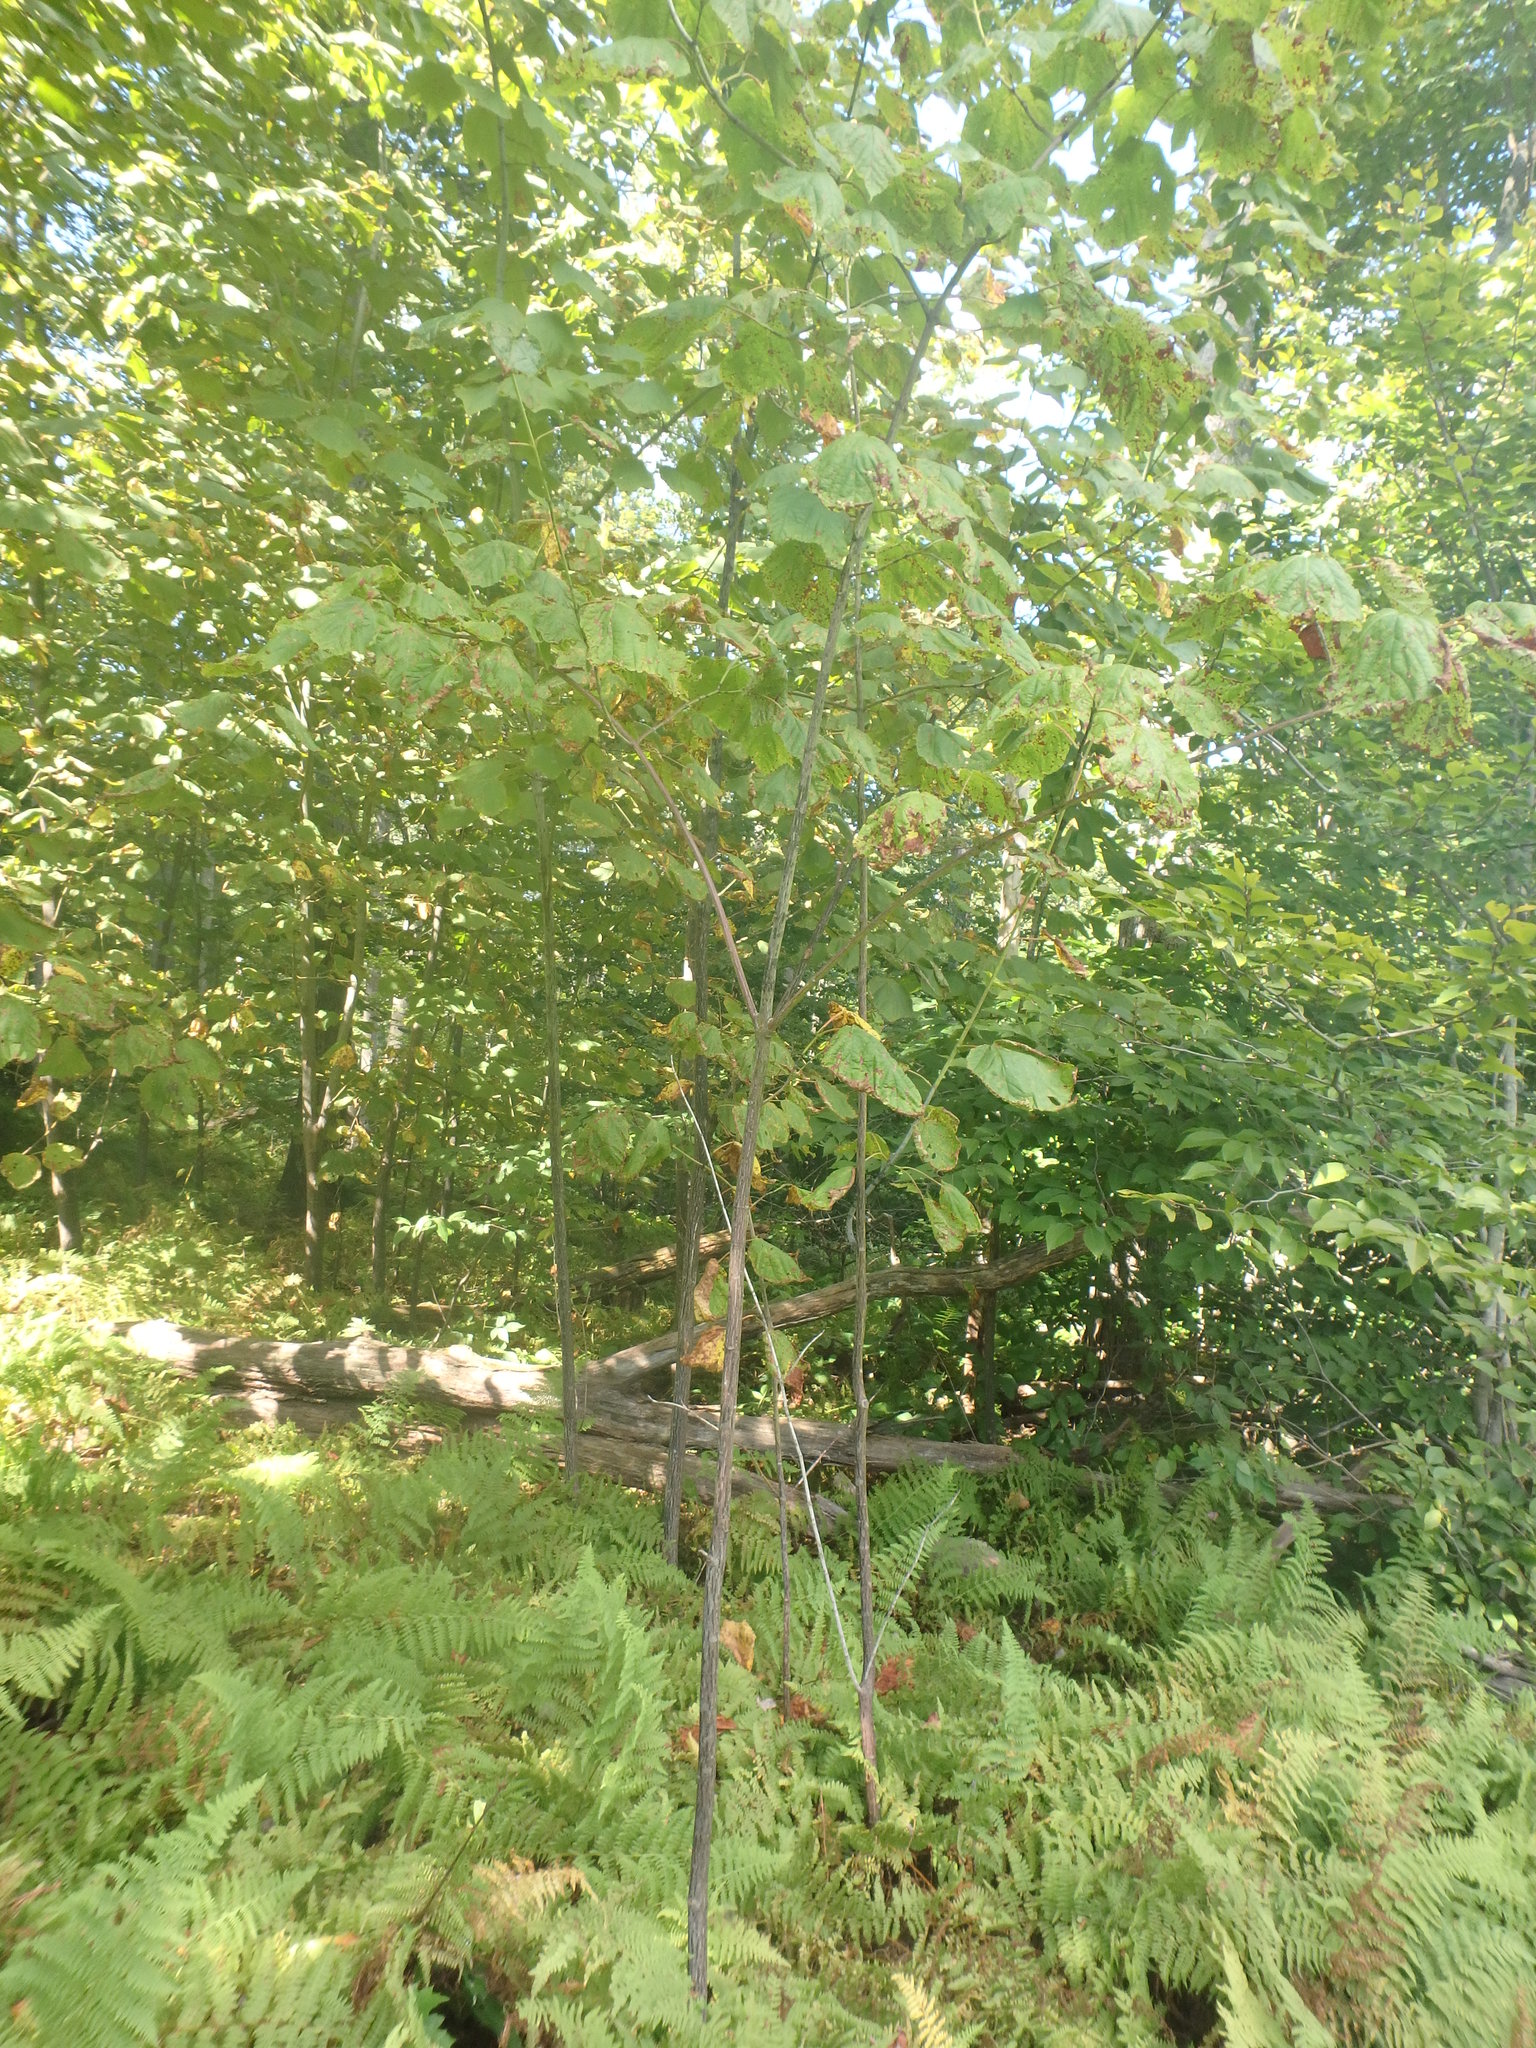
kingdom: Plantae
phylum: Tracheophyta
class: Magnoliopsida
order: Sapindales
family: Sapindaceae
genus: Acer
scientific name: Acer pensylvanicum
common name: Moosewood
